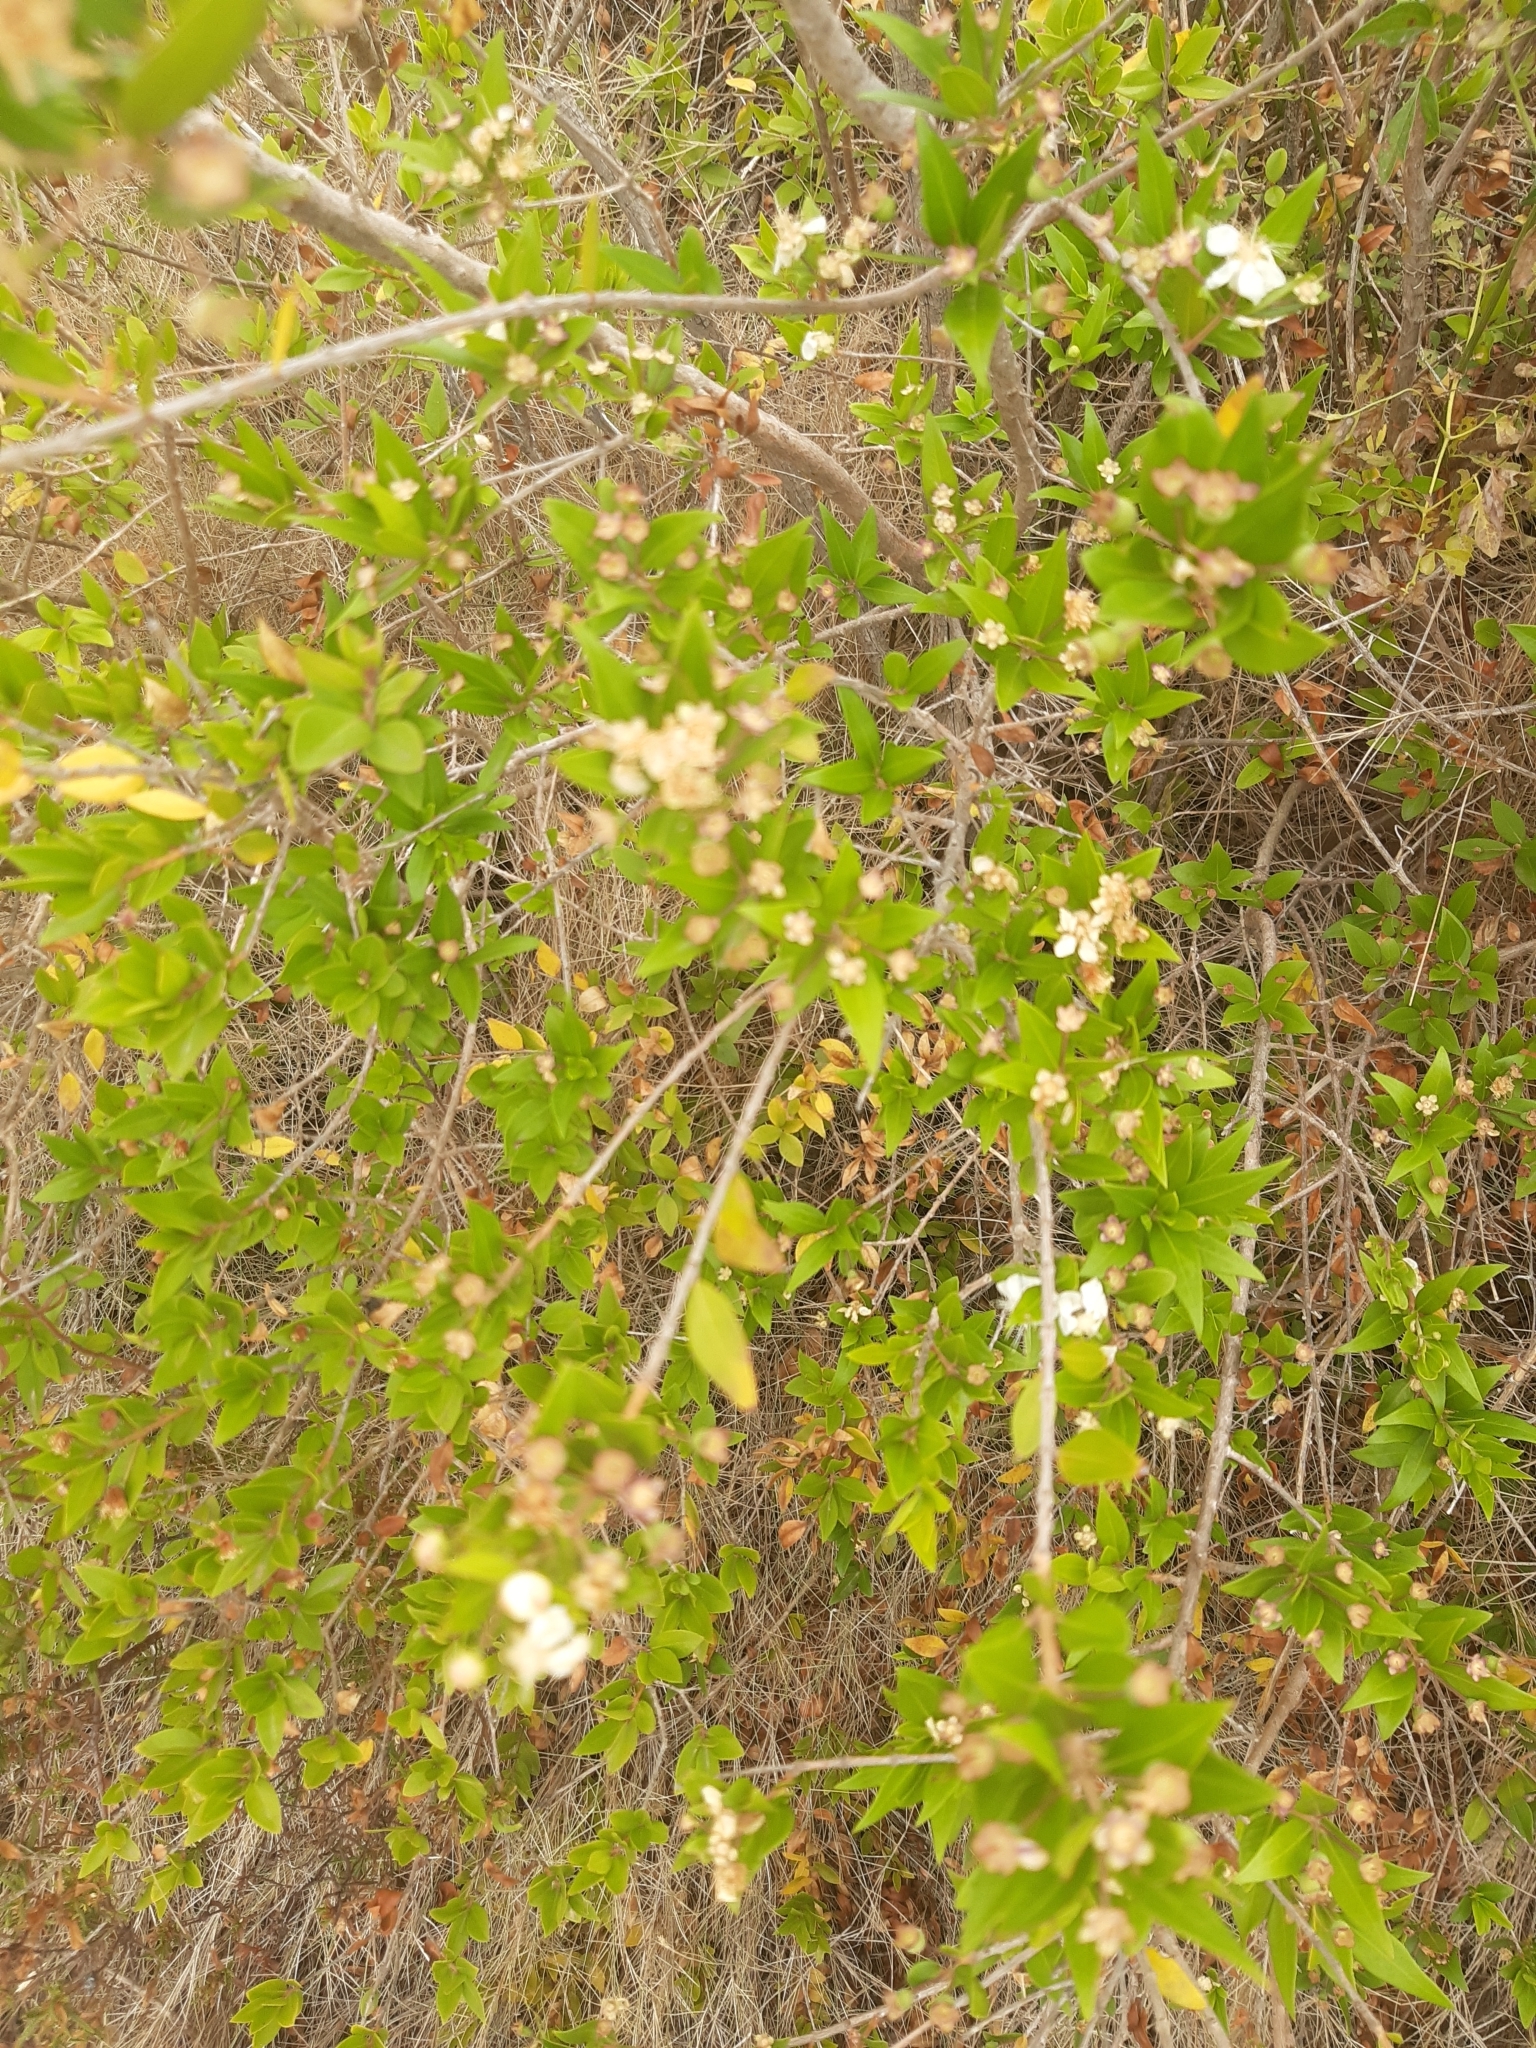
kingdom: Plantae
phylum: Tracheophyta
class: Magnoliopsida
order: Myrtales
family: Myrtaceae
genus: Myrtus
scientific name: Myrtus communis
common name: Myrtle
